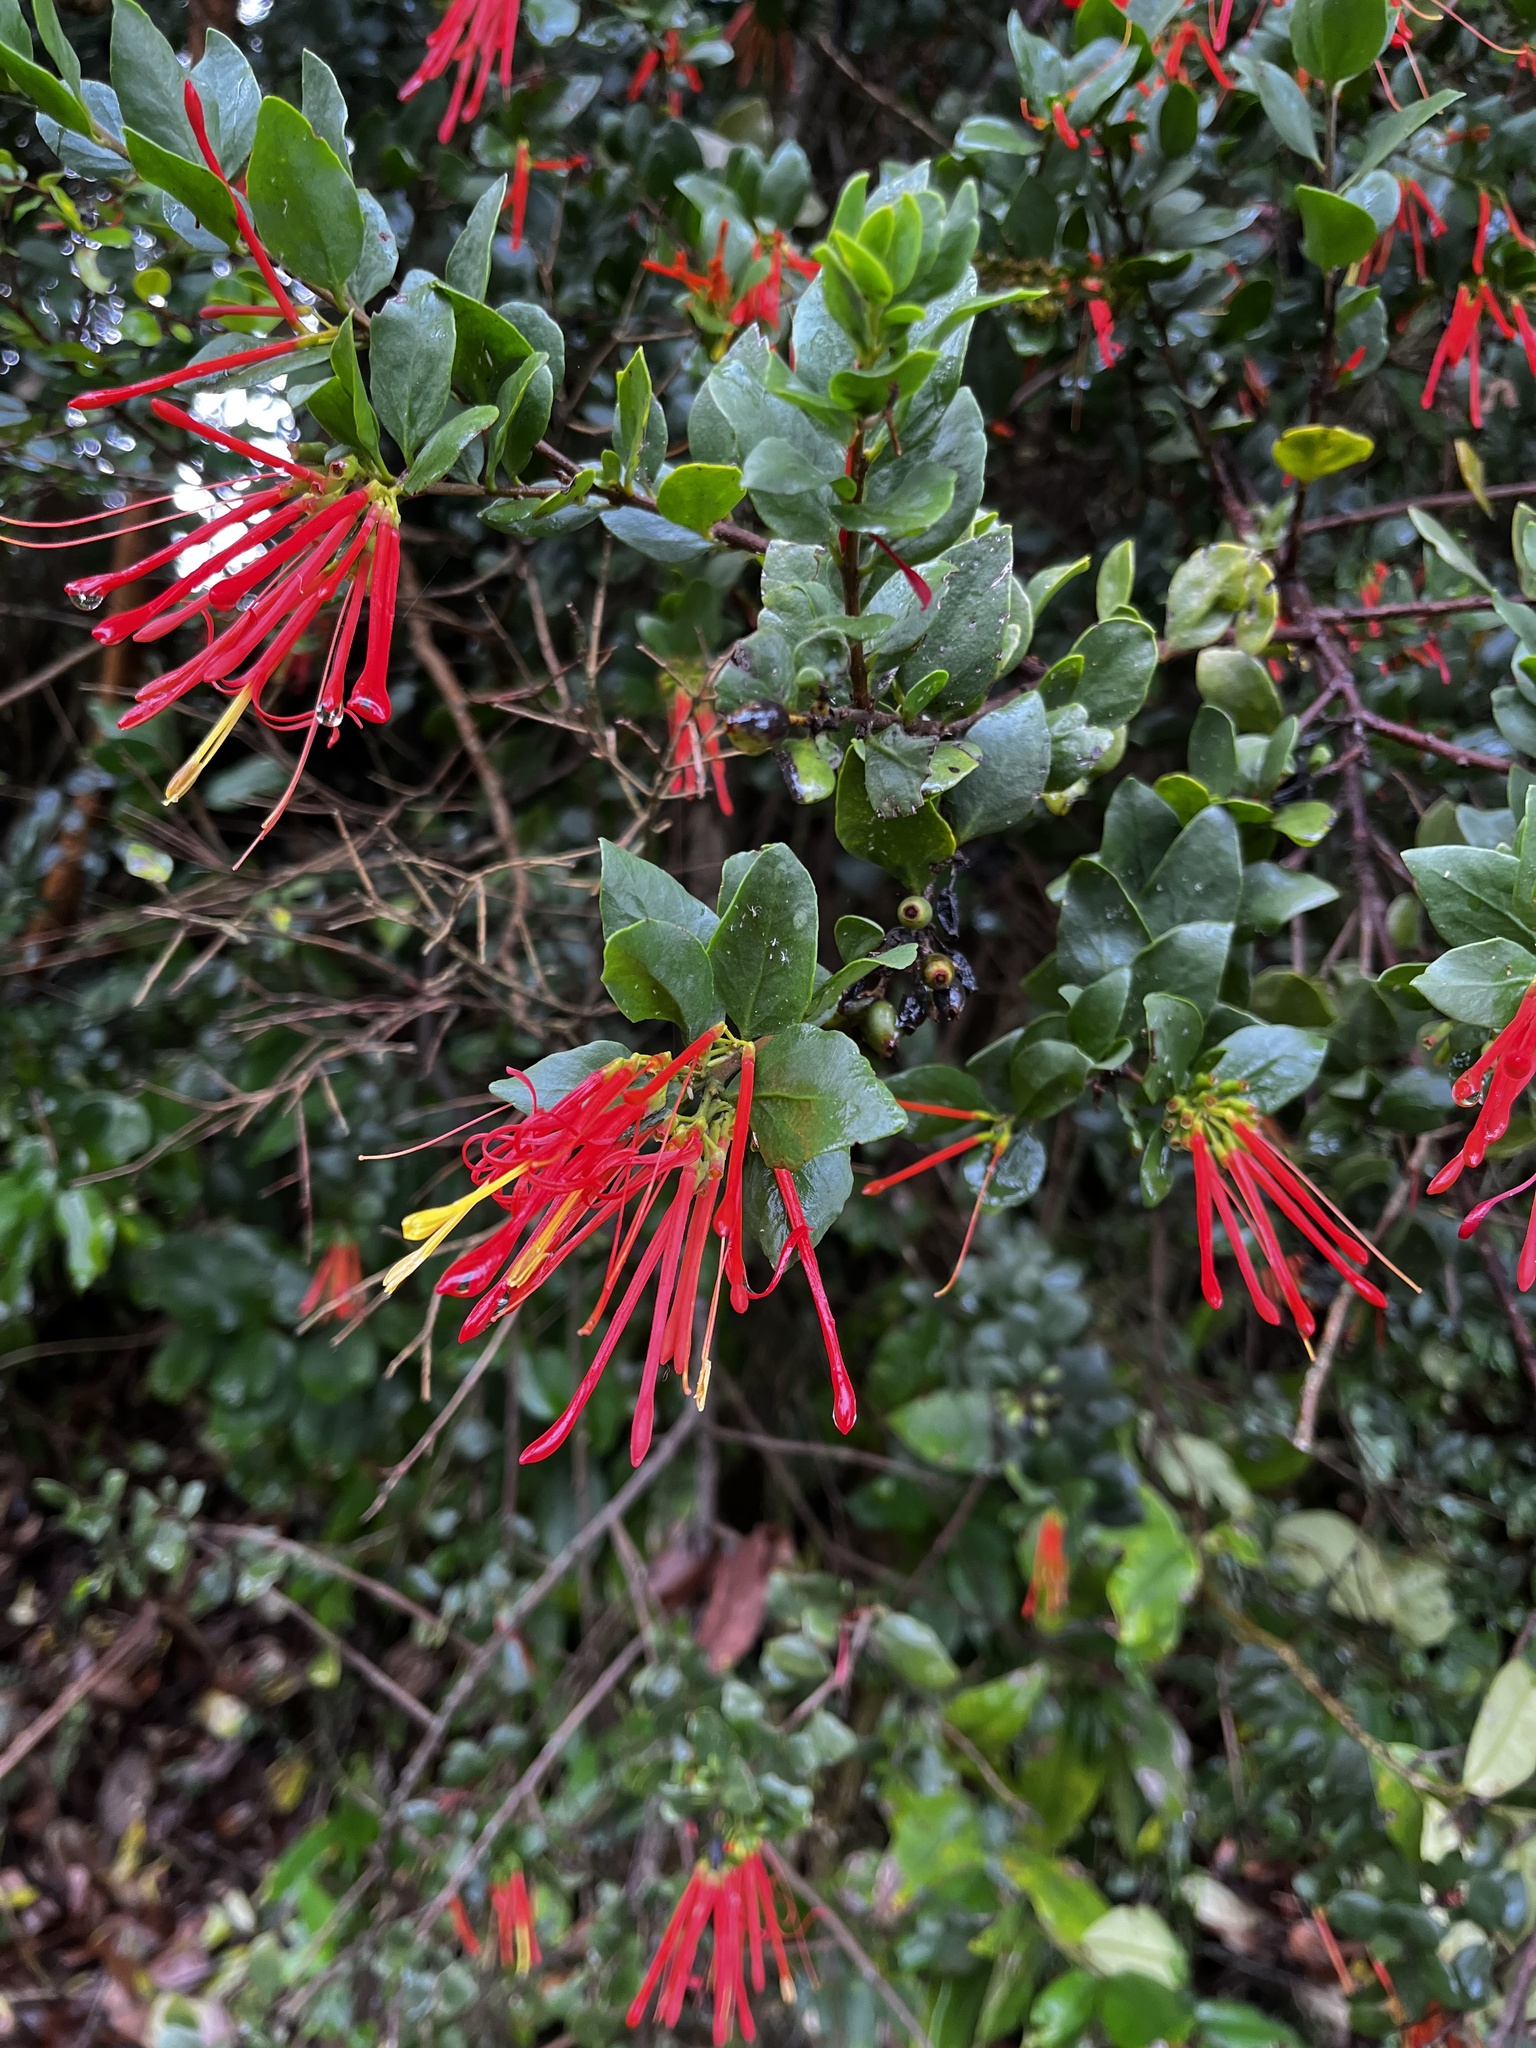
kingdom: Plantae
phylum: Tracheophyta
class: Magnoliopsida
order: Santalales
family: Loranthaceae
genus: Tristerix
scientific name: Tristerix corymbosus
